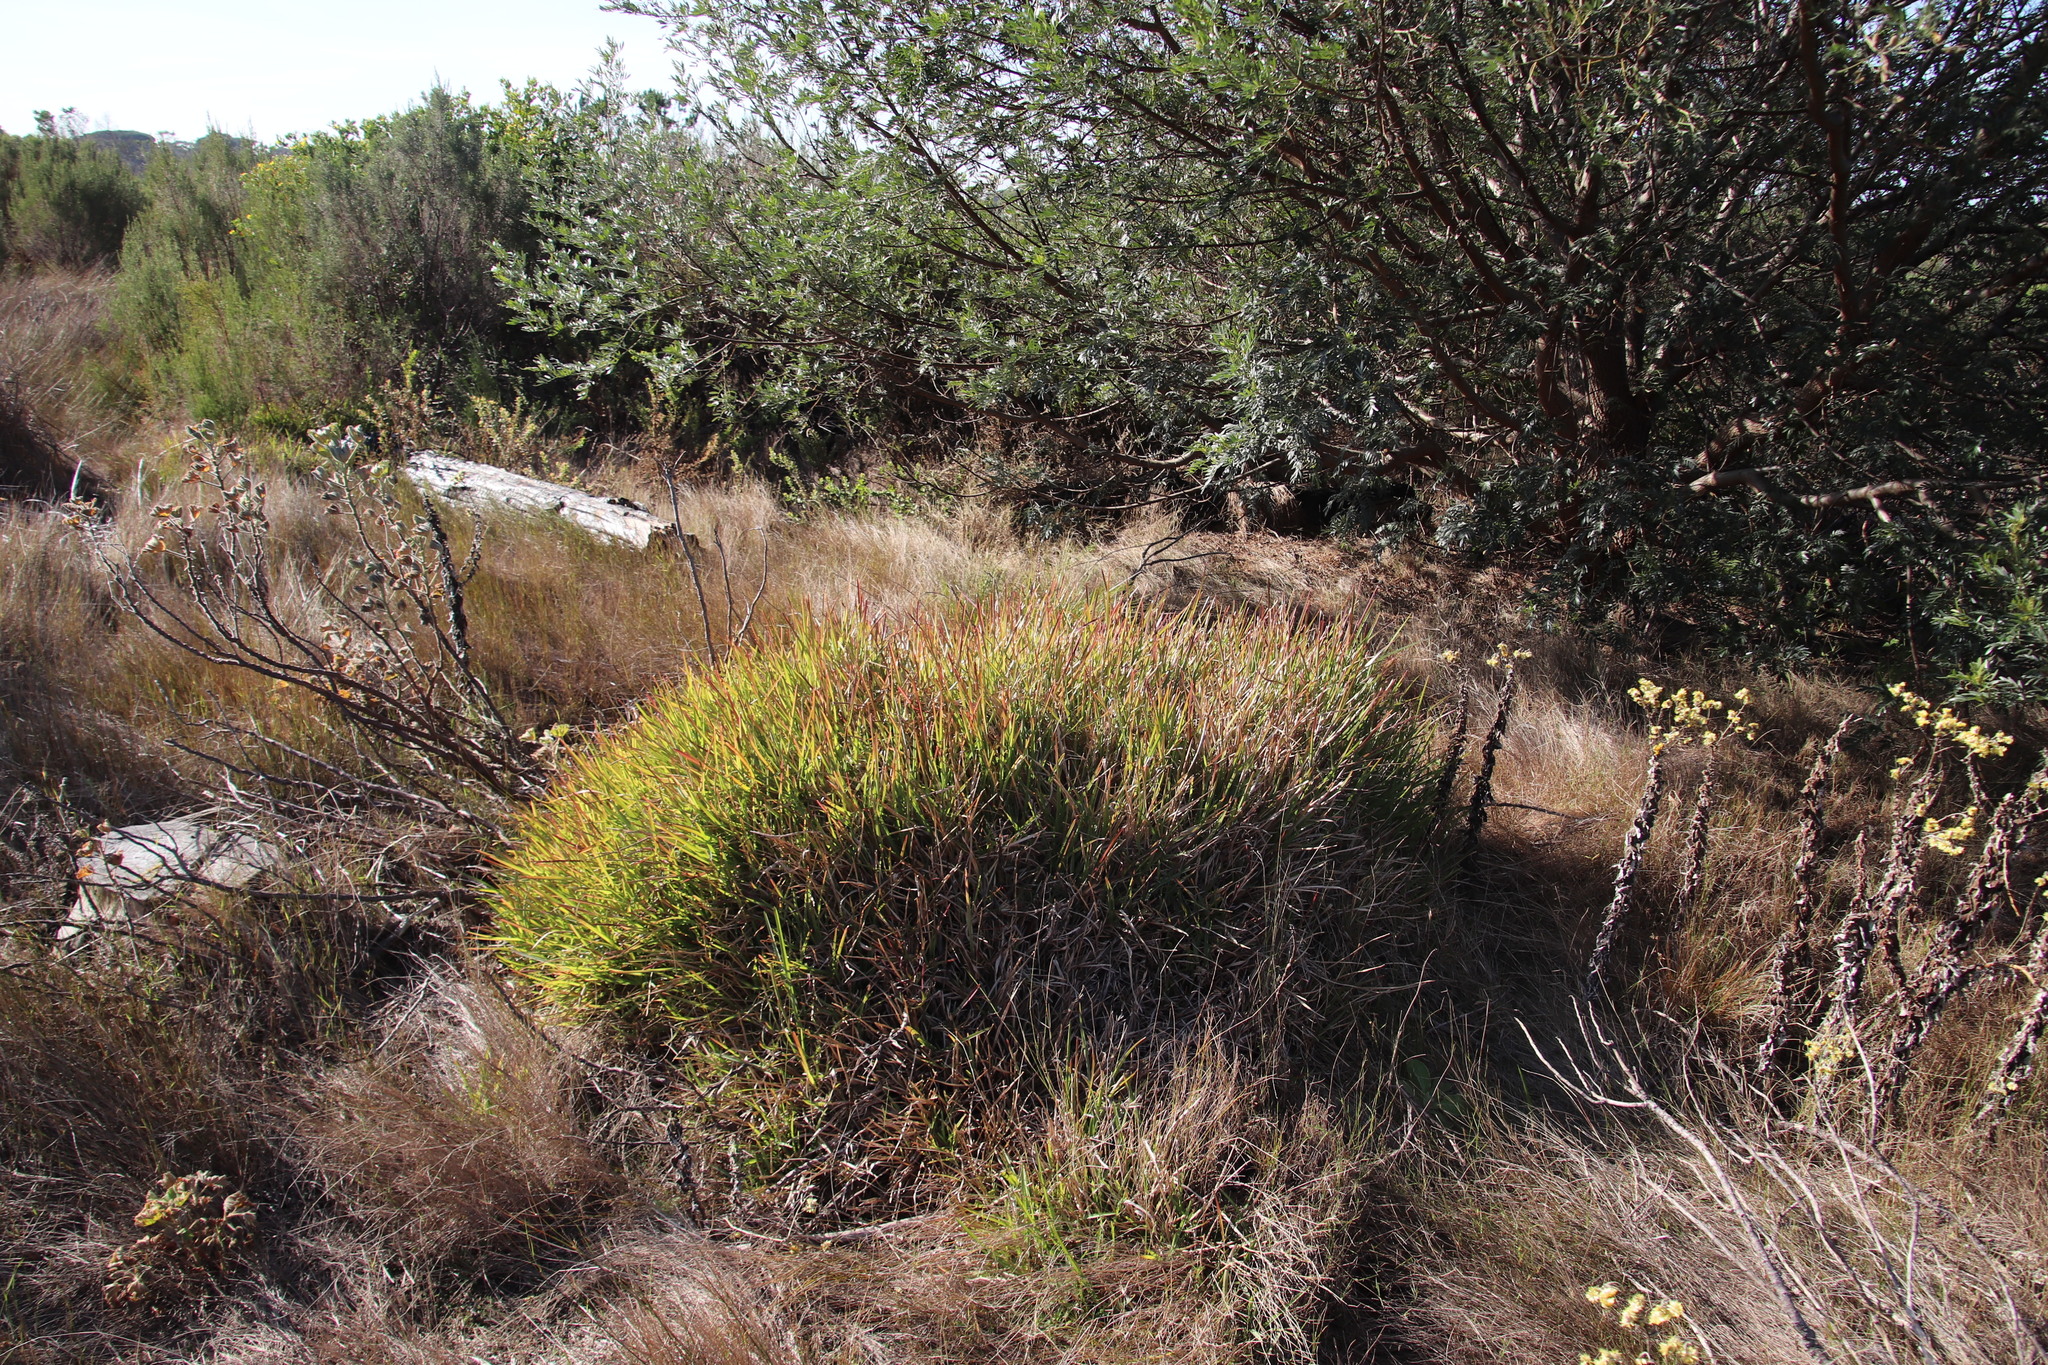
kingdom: Plantae
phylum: Tracheophyta
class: Liliopsida
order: Poales
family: Poaceae
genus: Stenotaphrum
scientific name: Stenotaphrum secundatum
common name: St. augustine grass
